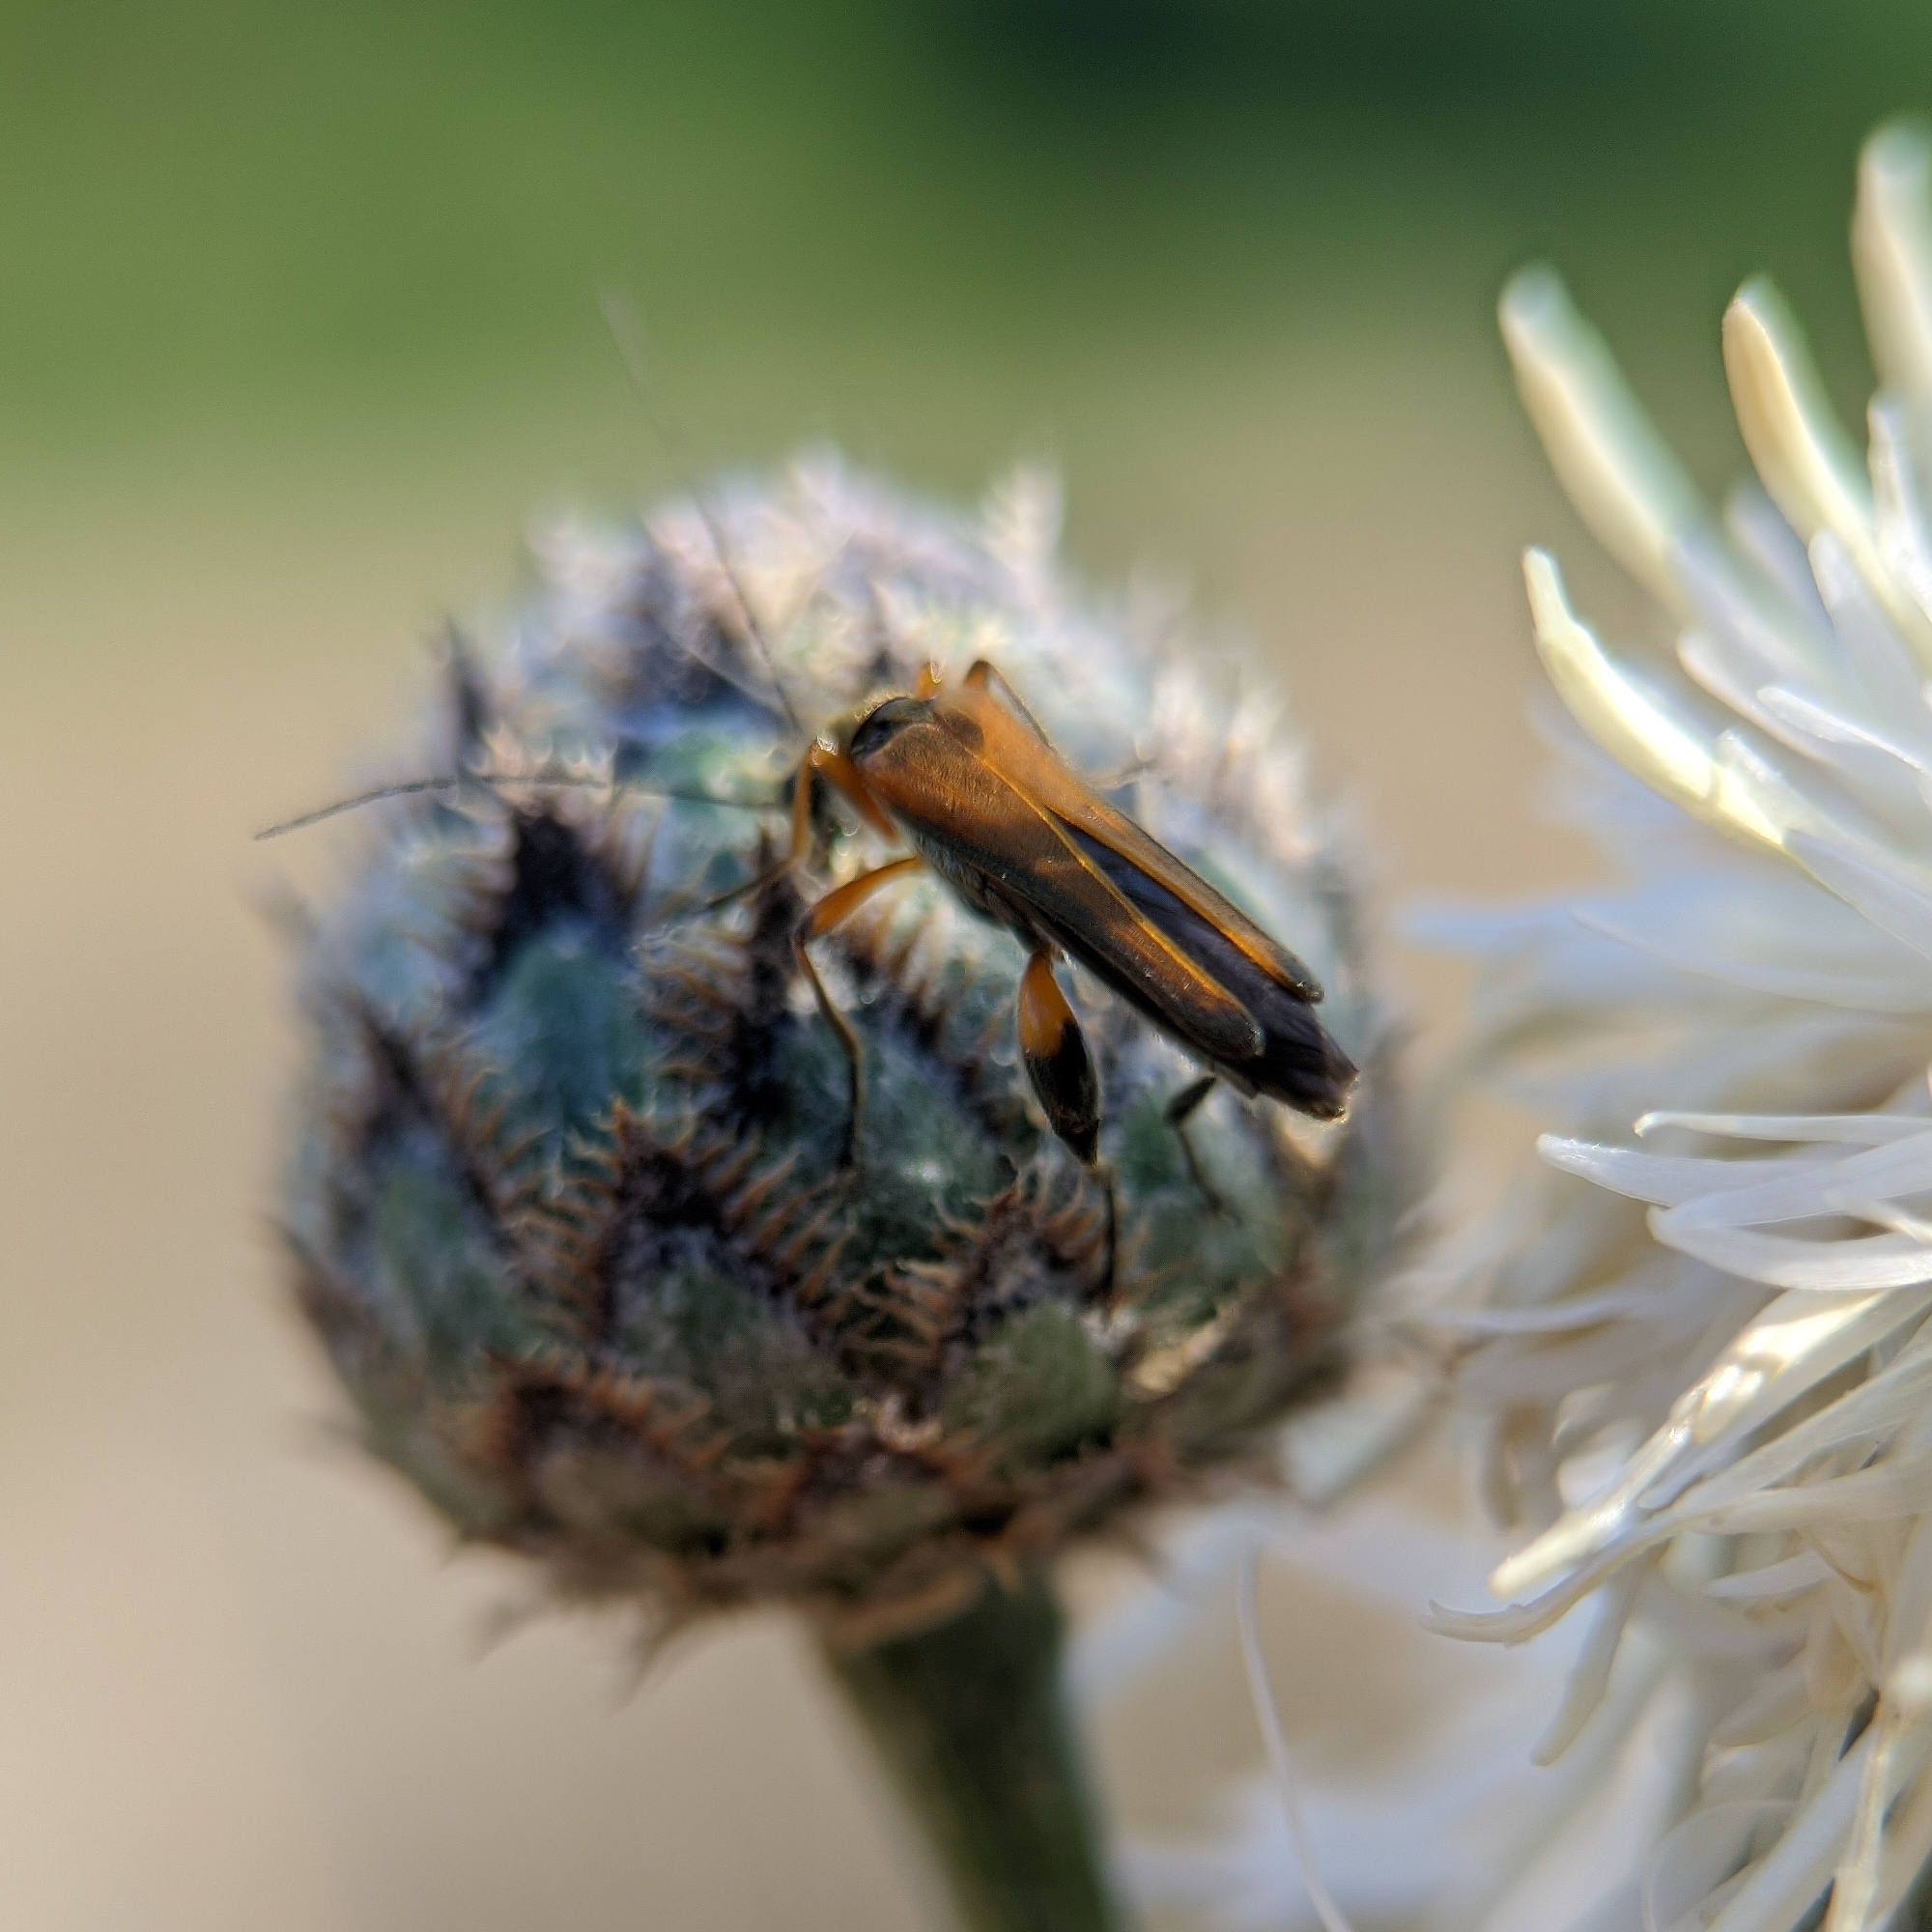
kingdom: Animalia
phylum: Arthropoda
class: Insecta
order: Coleoptera
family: Oedemeridae
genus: Oedemera
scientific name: Oedemera podagrariae
